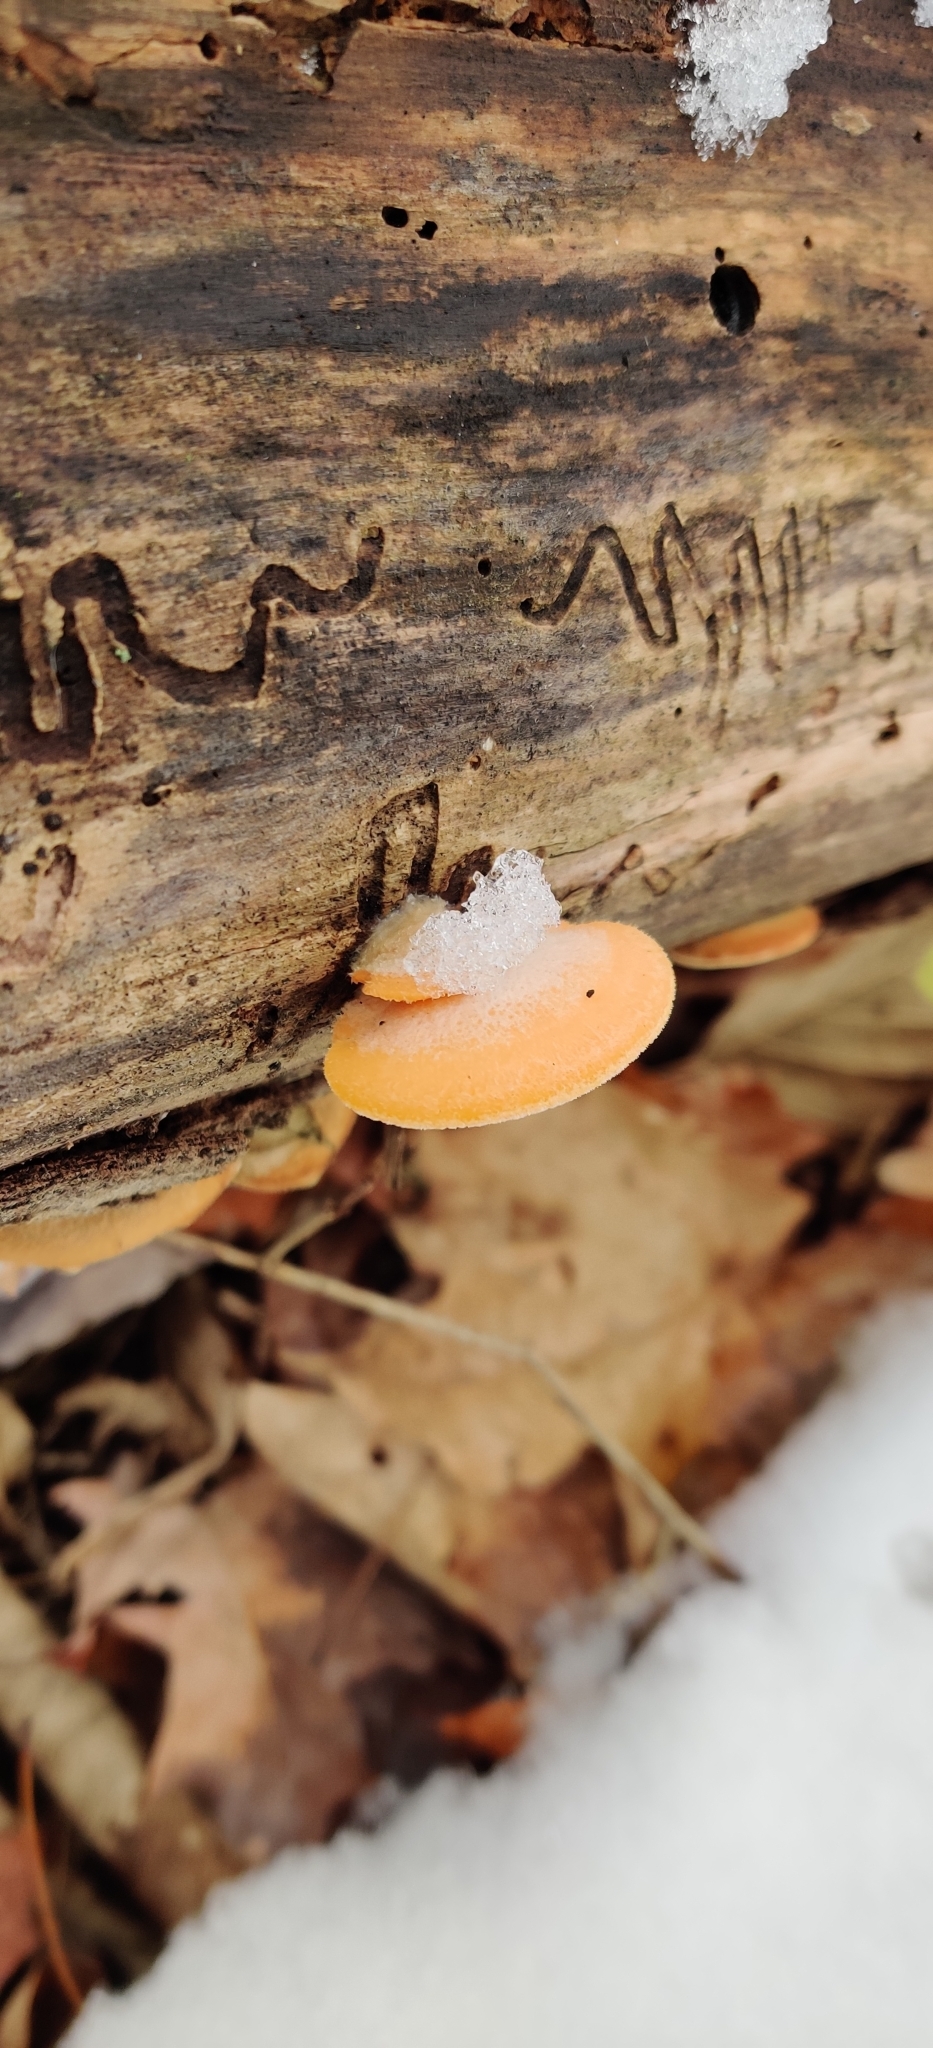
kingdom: Fungi
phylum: Basidiomycota
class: Agaricomycetes
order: Agaricales
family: Phyllotopsidaceae
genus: Phyllotopsis
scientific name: Phyllotopsis nidulans
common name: Orange mock oyster
